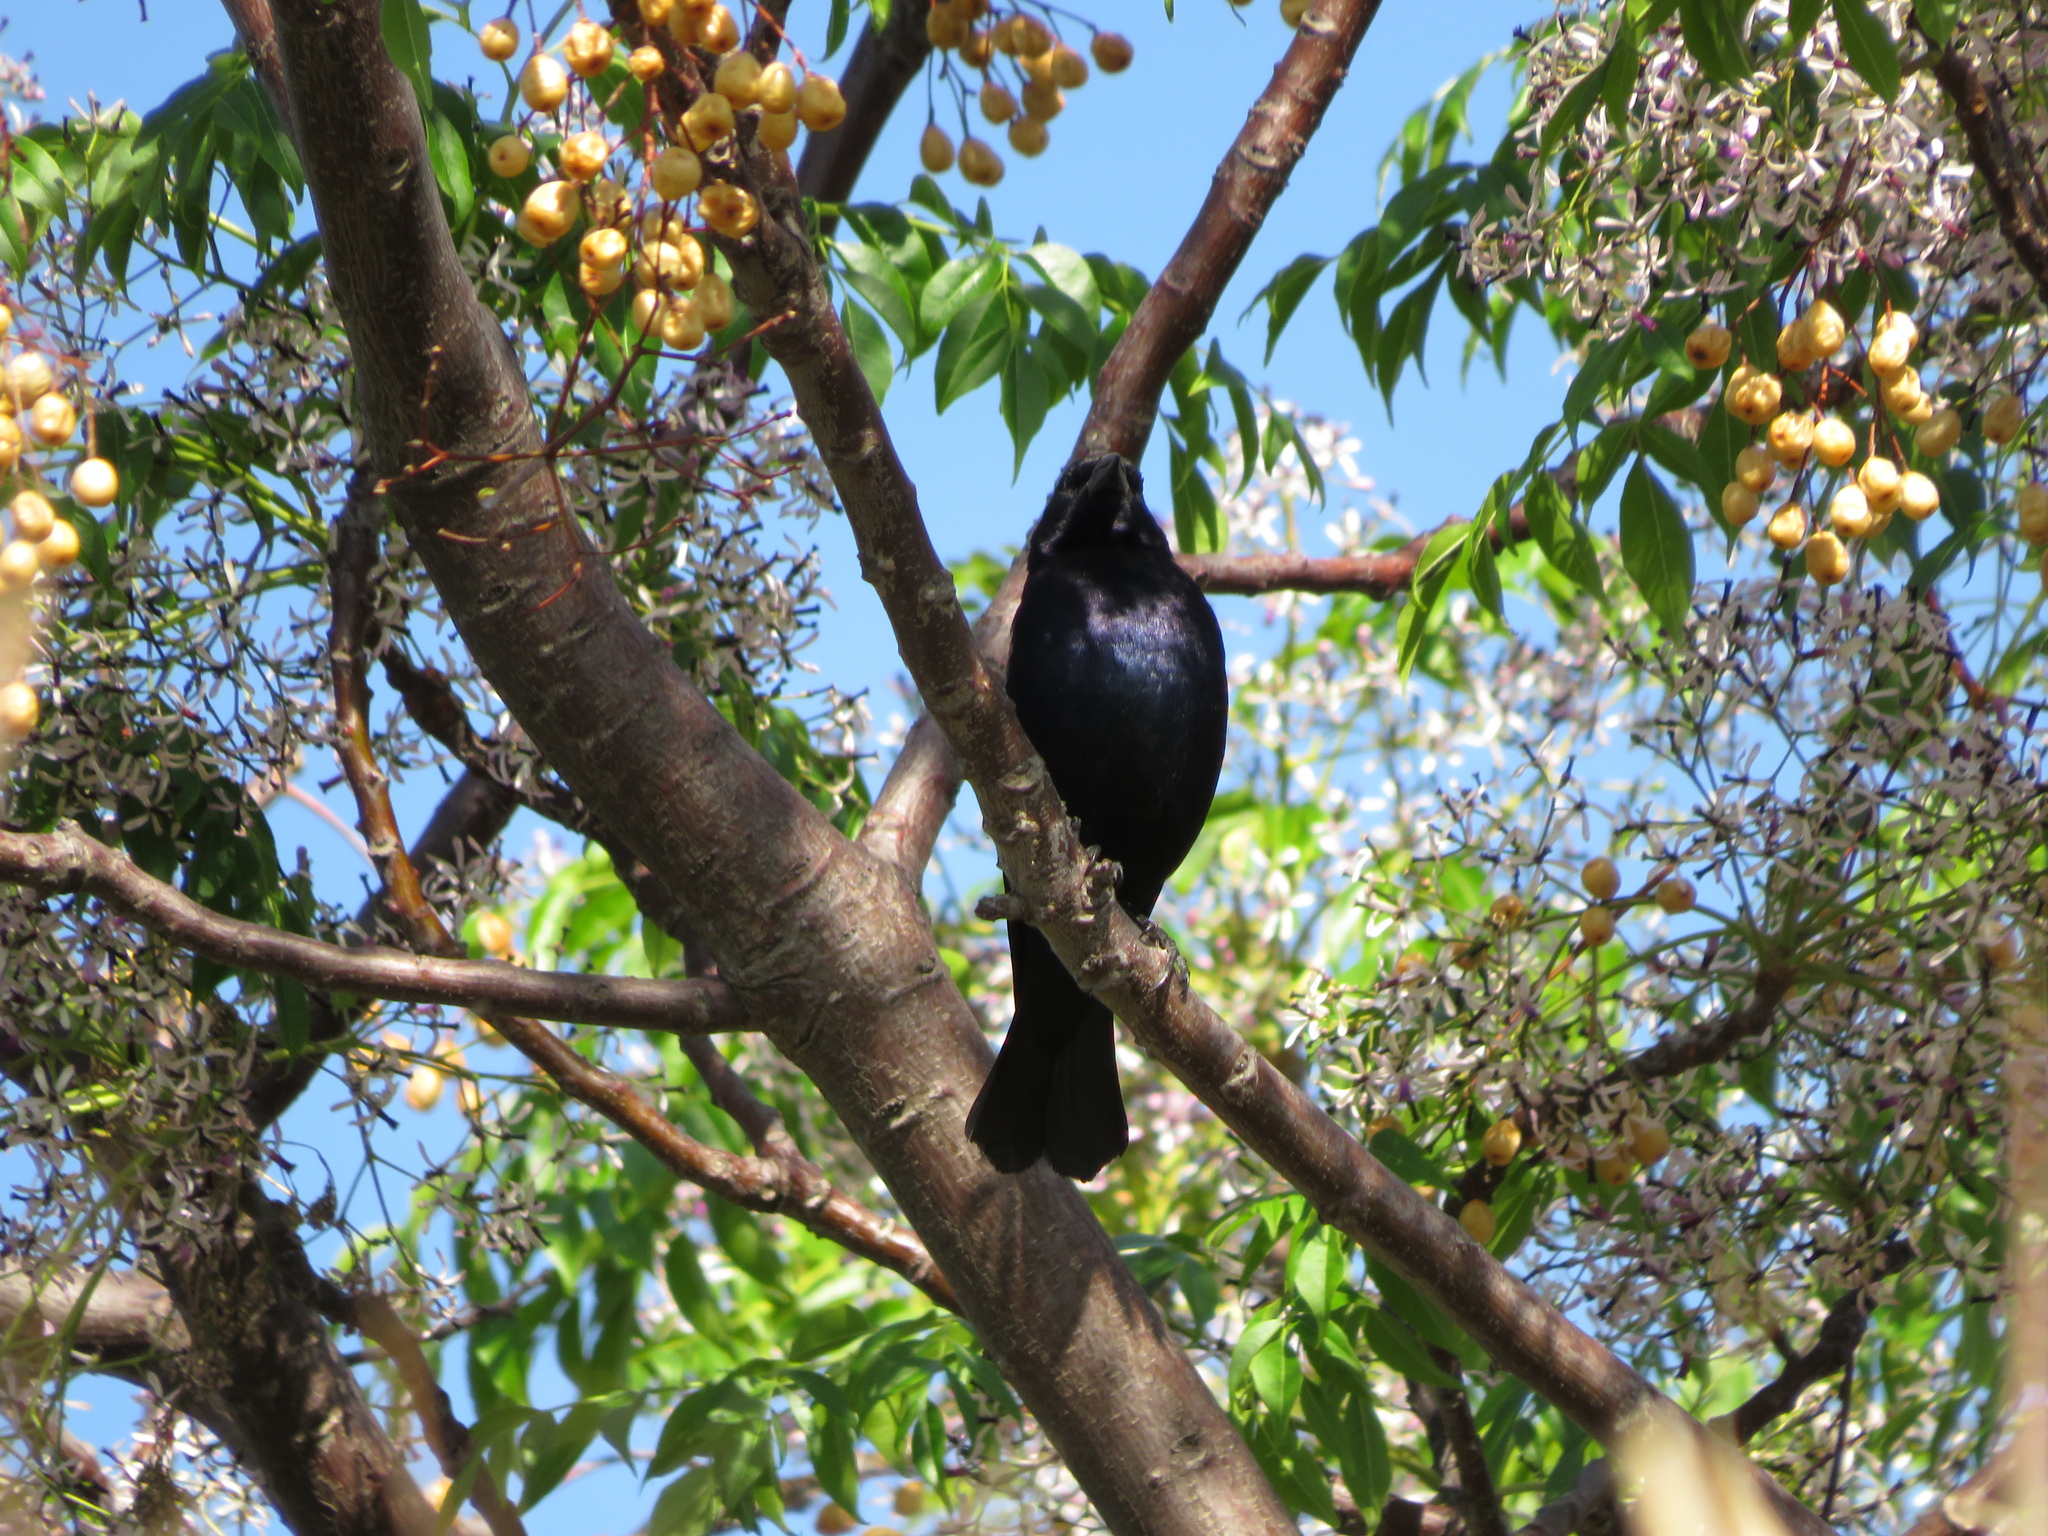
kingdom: Animalia
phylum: Chordata
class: Aves
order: Passeriformes
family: Icteridae
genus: Molothrus
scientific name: Molothrus bonariensis
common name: Shiny cowbird
